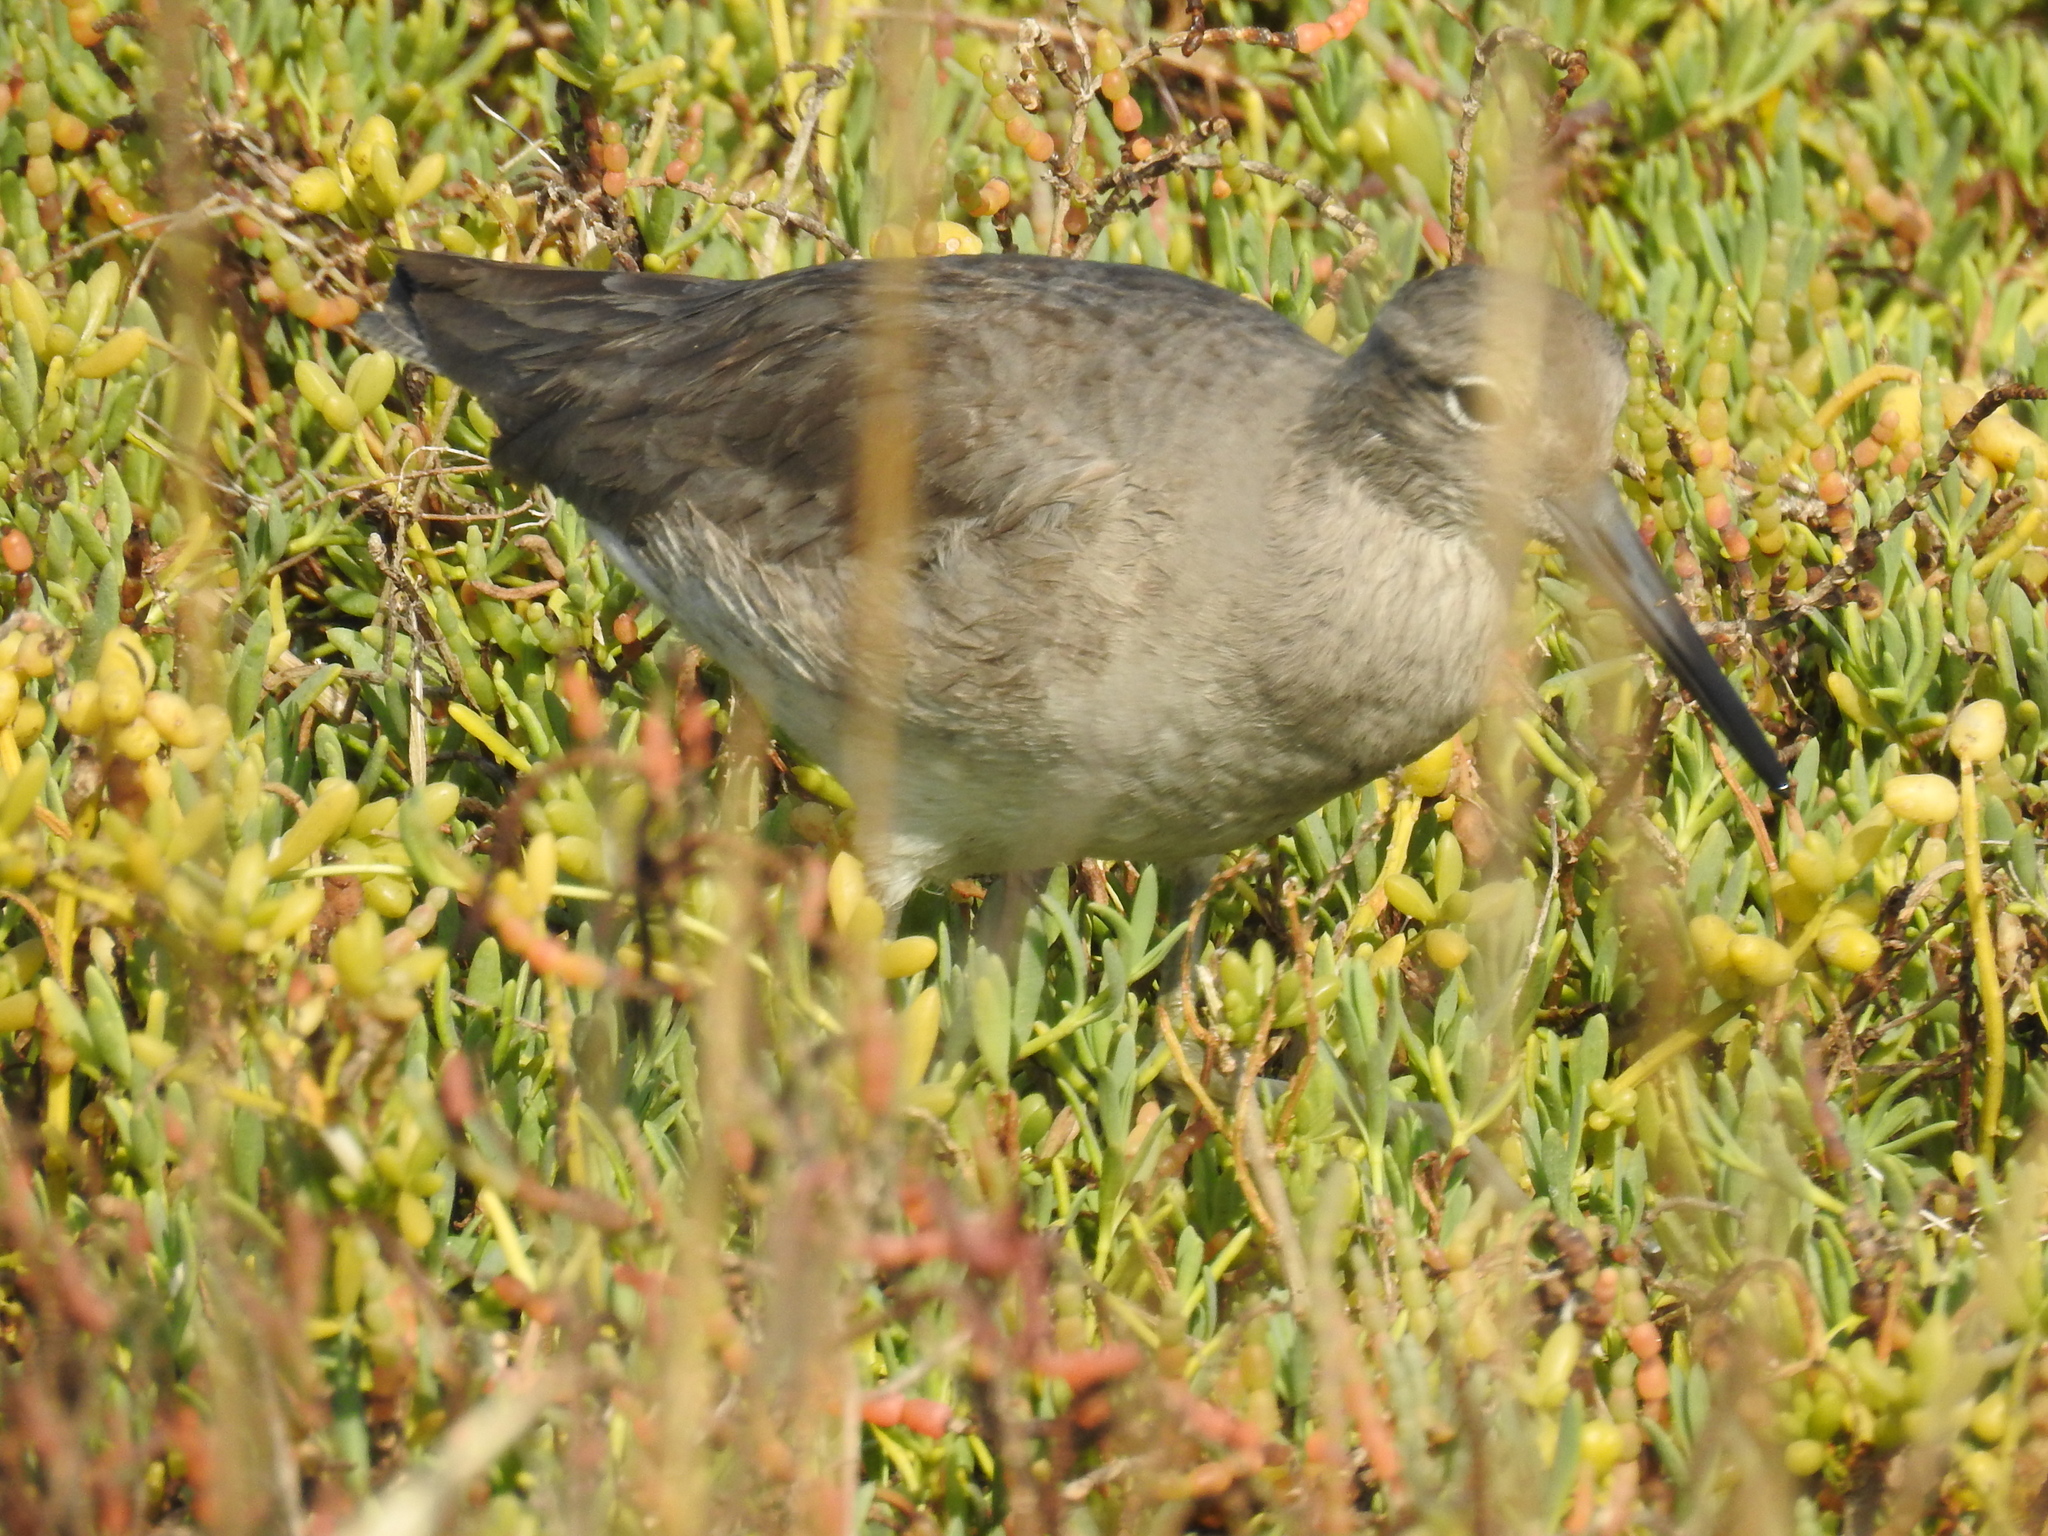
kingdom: Animalia
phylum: Chordata
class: Aves
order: Charadriiformes
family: Scolopacidae
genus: Tringa
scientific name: Tringa semipalmata
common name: Willet
